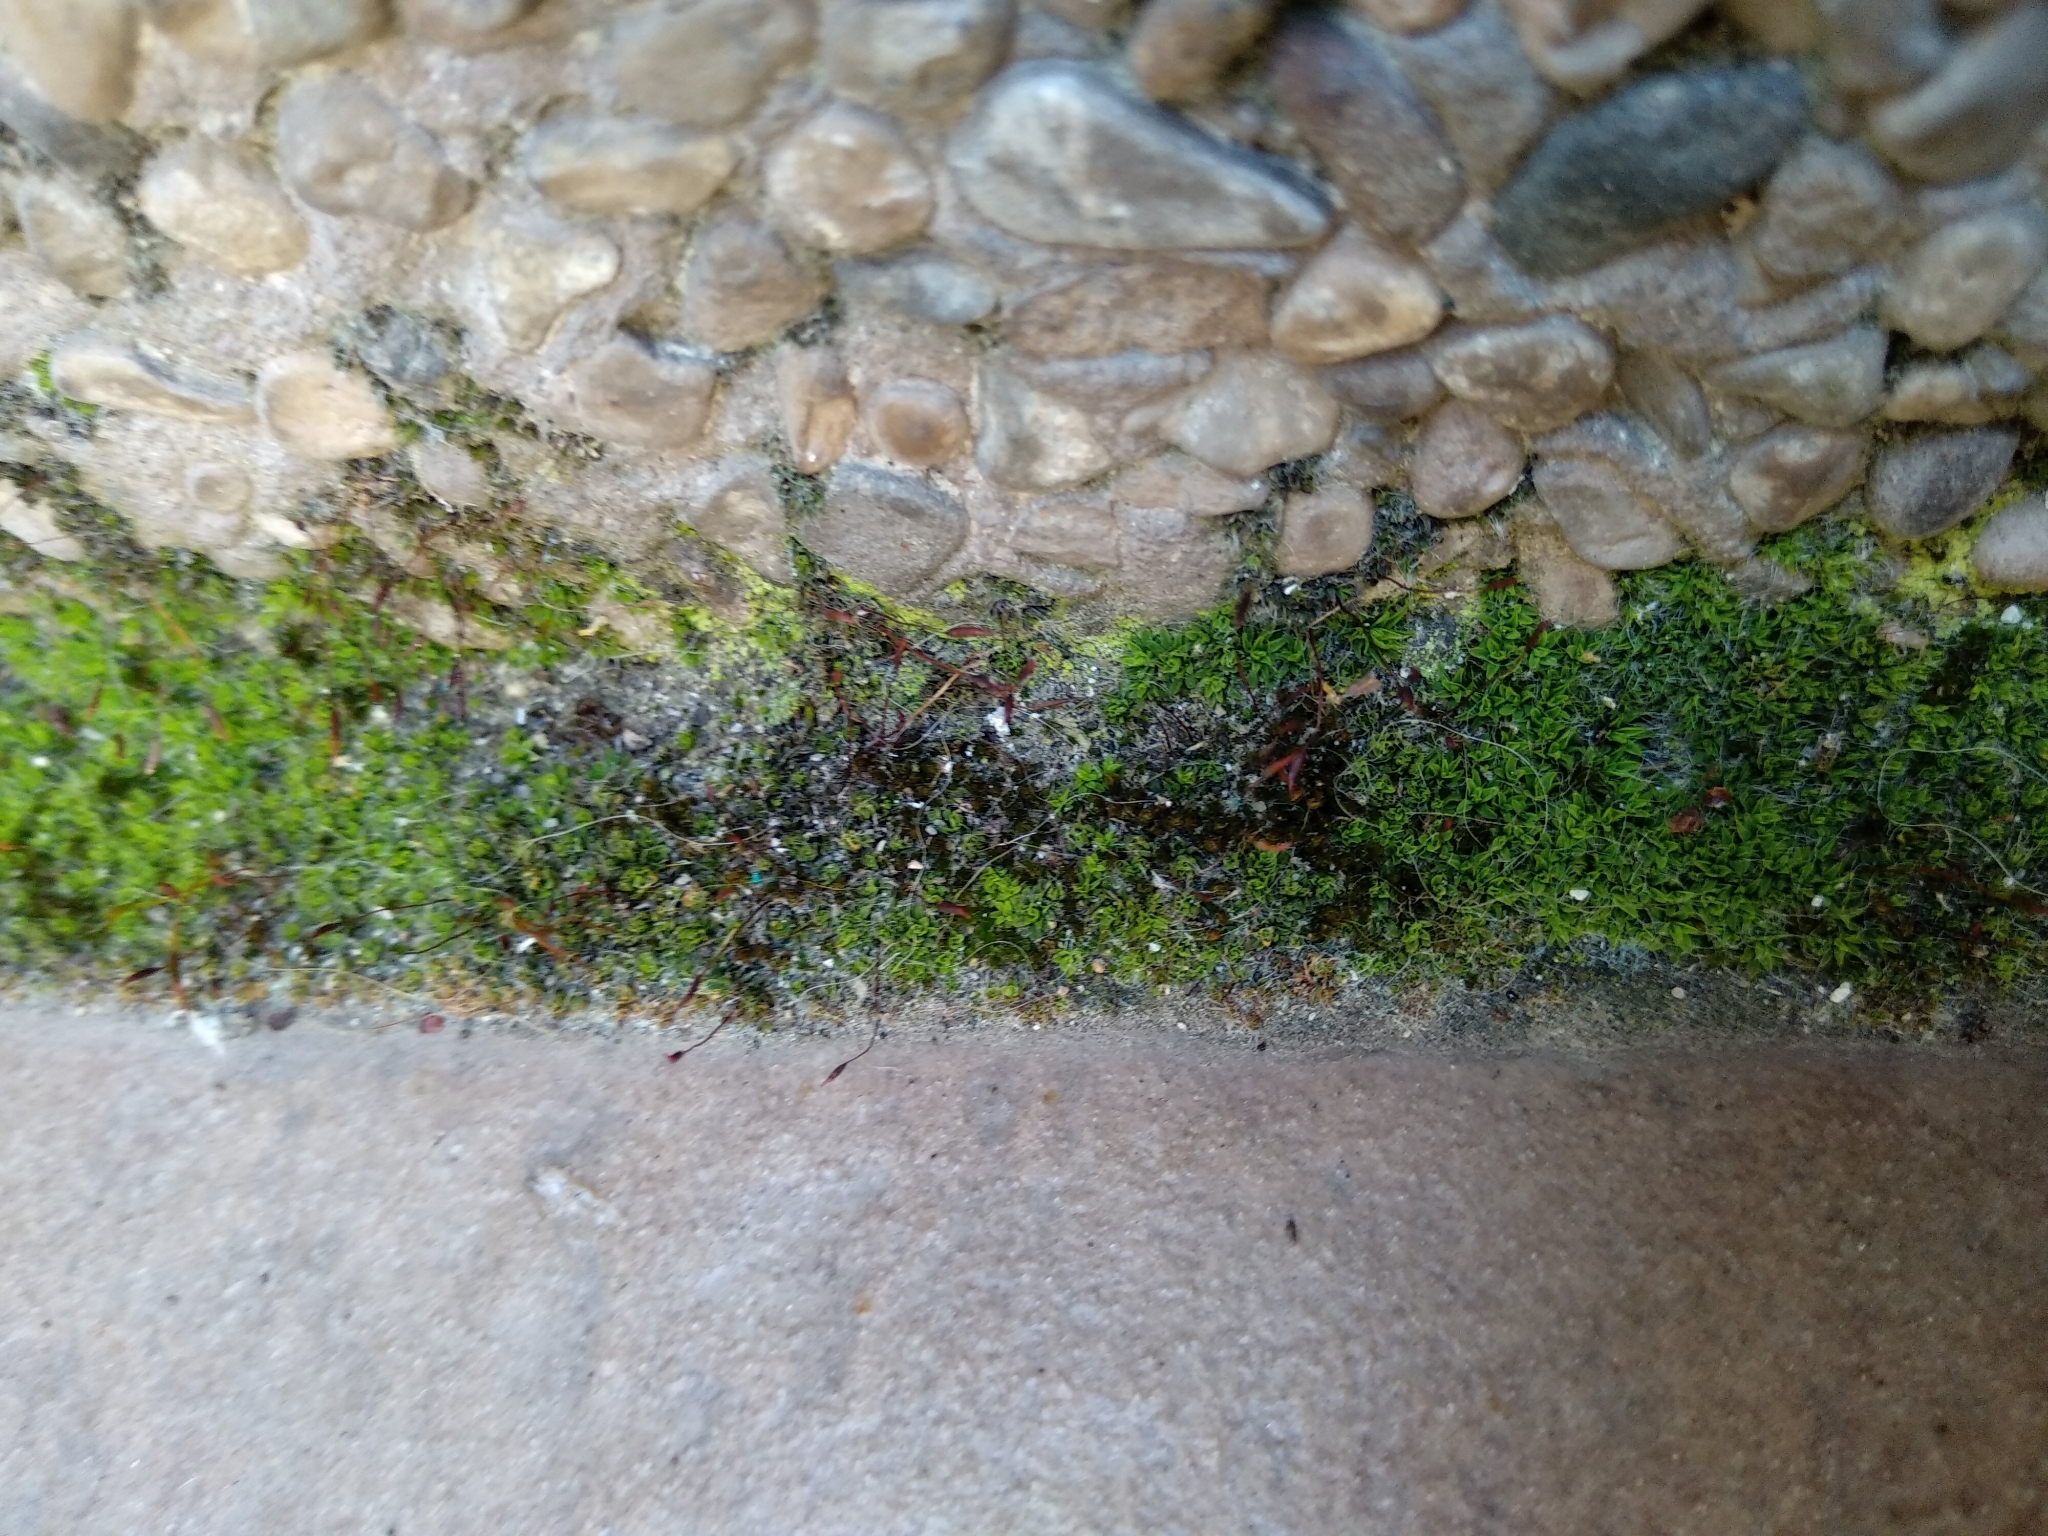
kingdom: Plantae
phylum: Bryophyta
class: Bryopsida
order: Pottiales
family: Pottiaceae
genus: Tortula
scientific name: Tortula muralis
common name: Wall screw-moss
